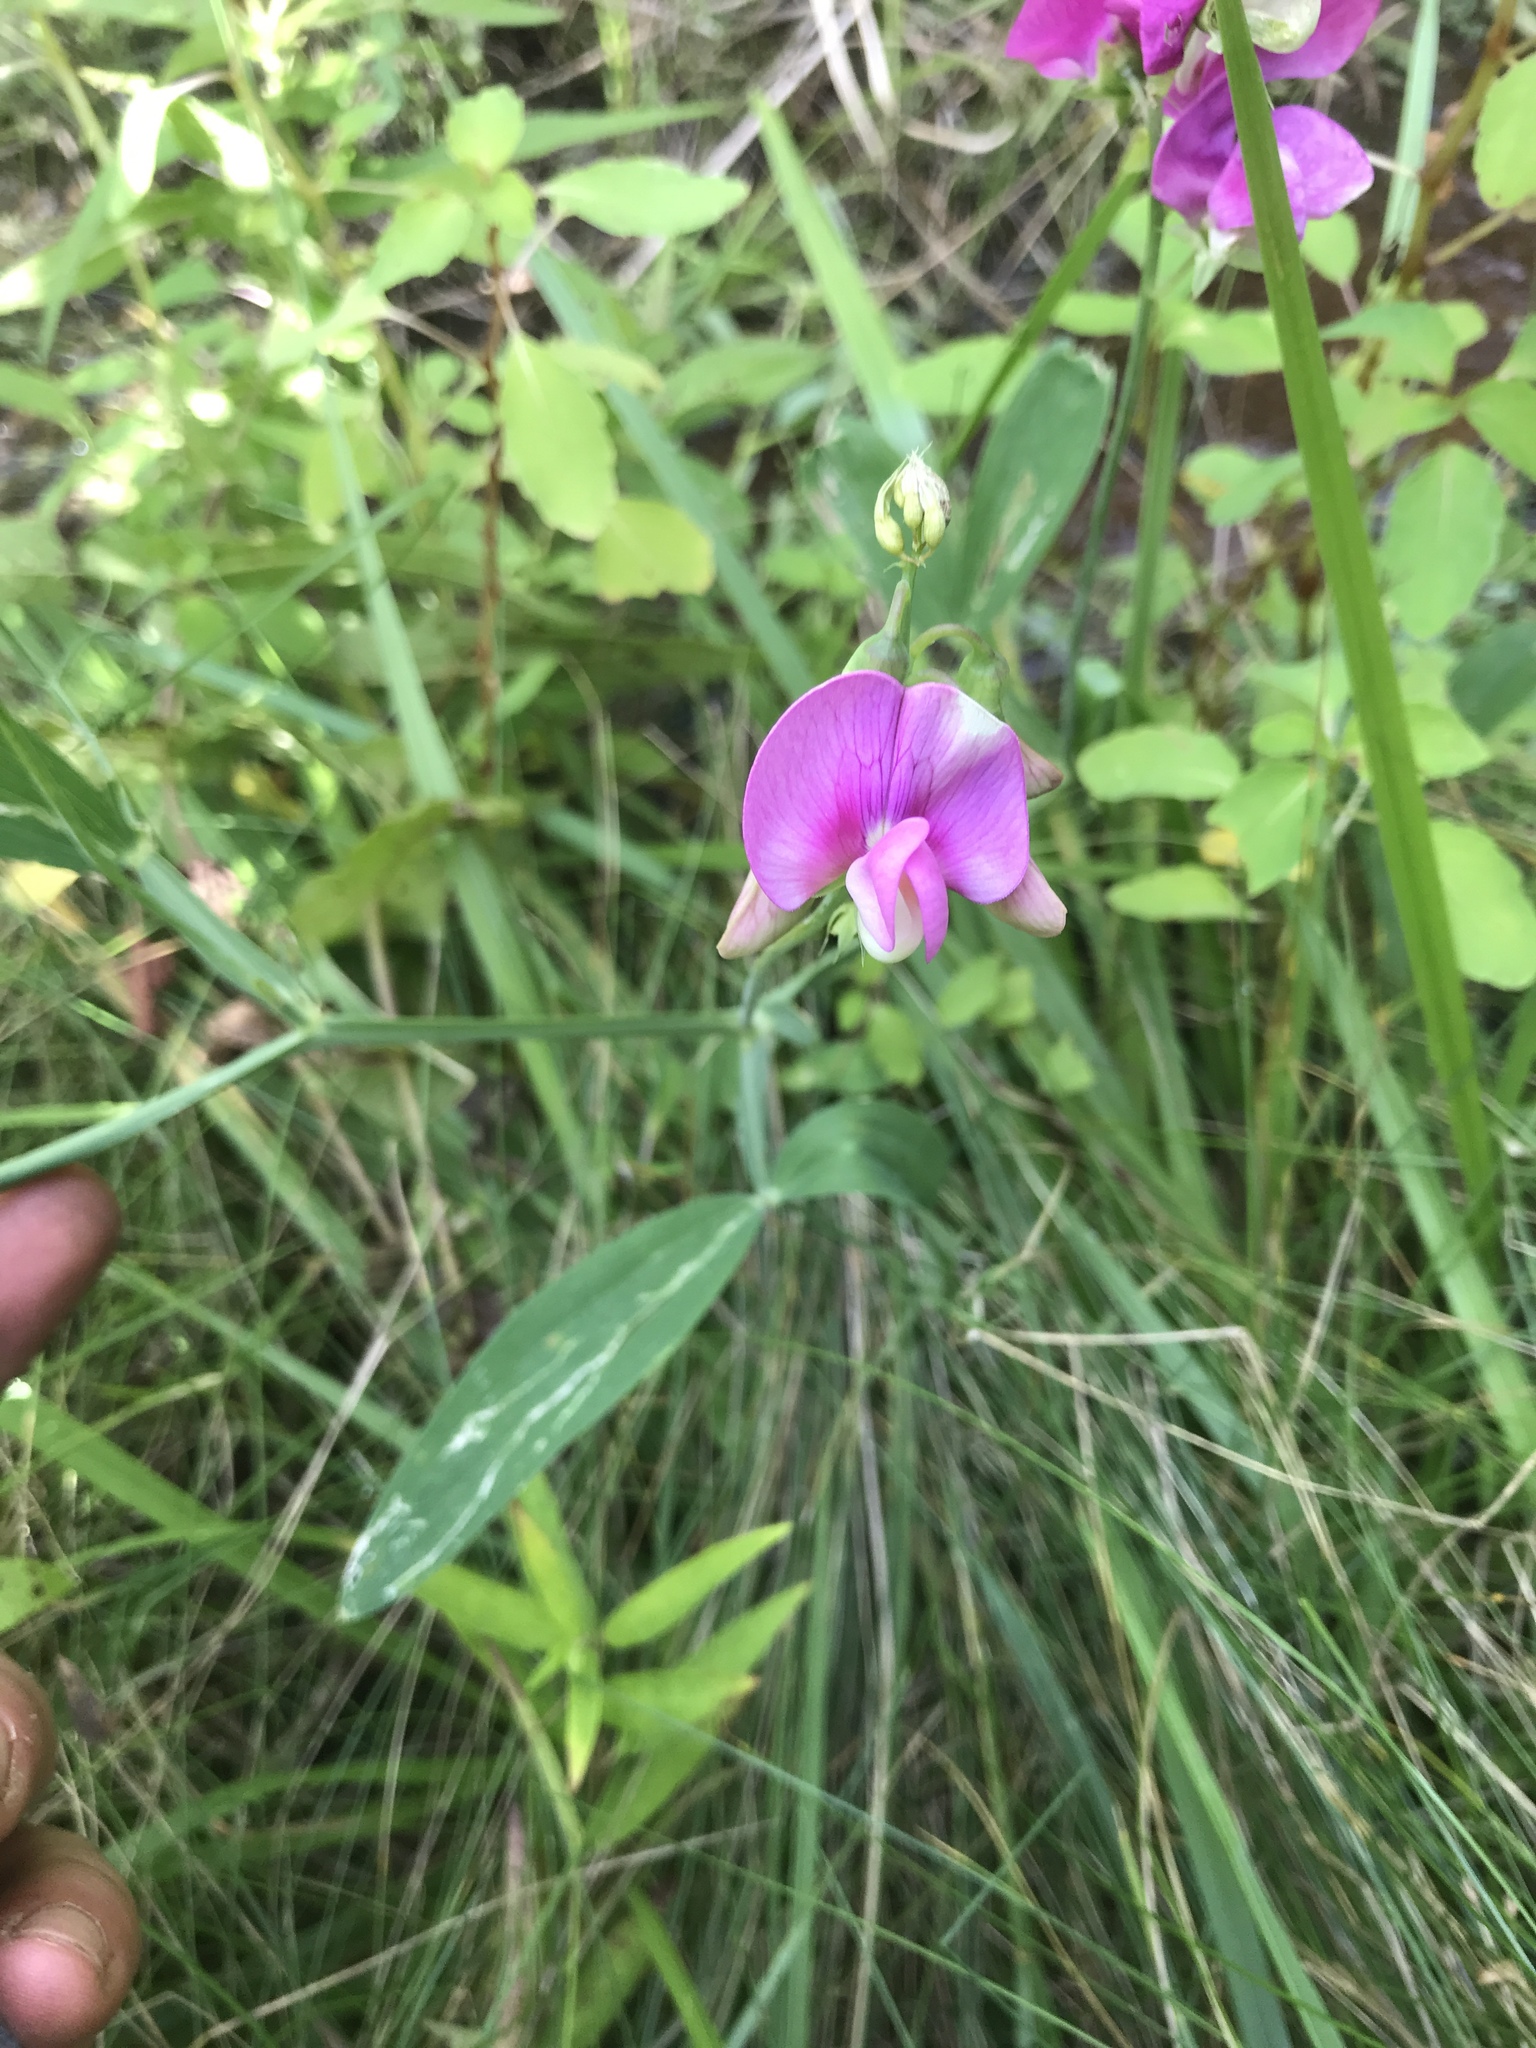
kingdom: Plantae
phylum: Tracheophyta
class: Magnoliopsida
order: Fabales
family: Fabaceae
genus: Lathyrus
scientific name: Lathyrus latifolius
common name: Perennial pea
